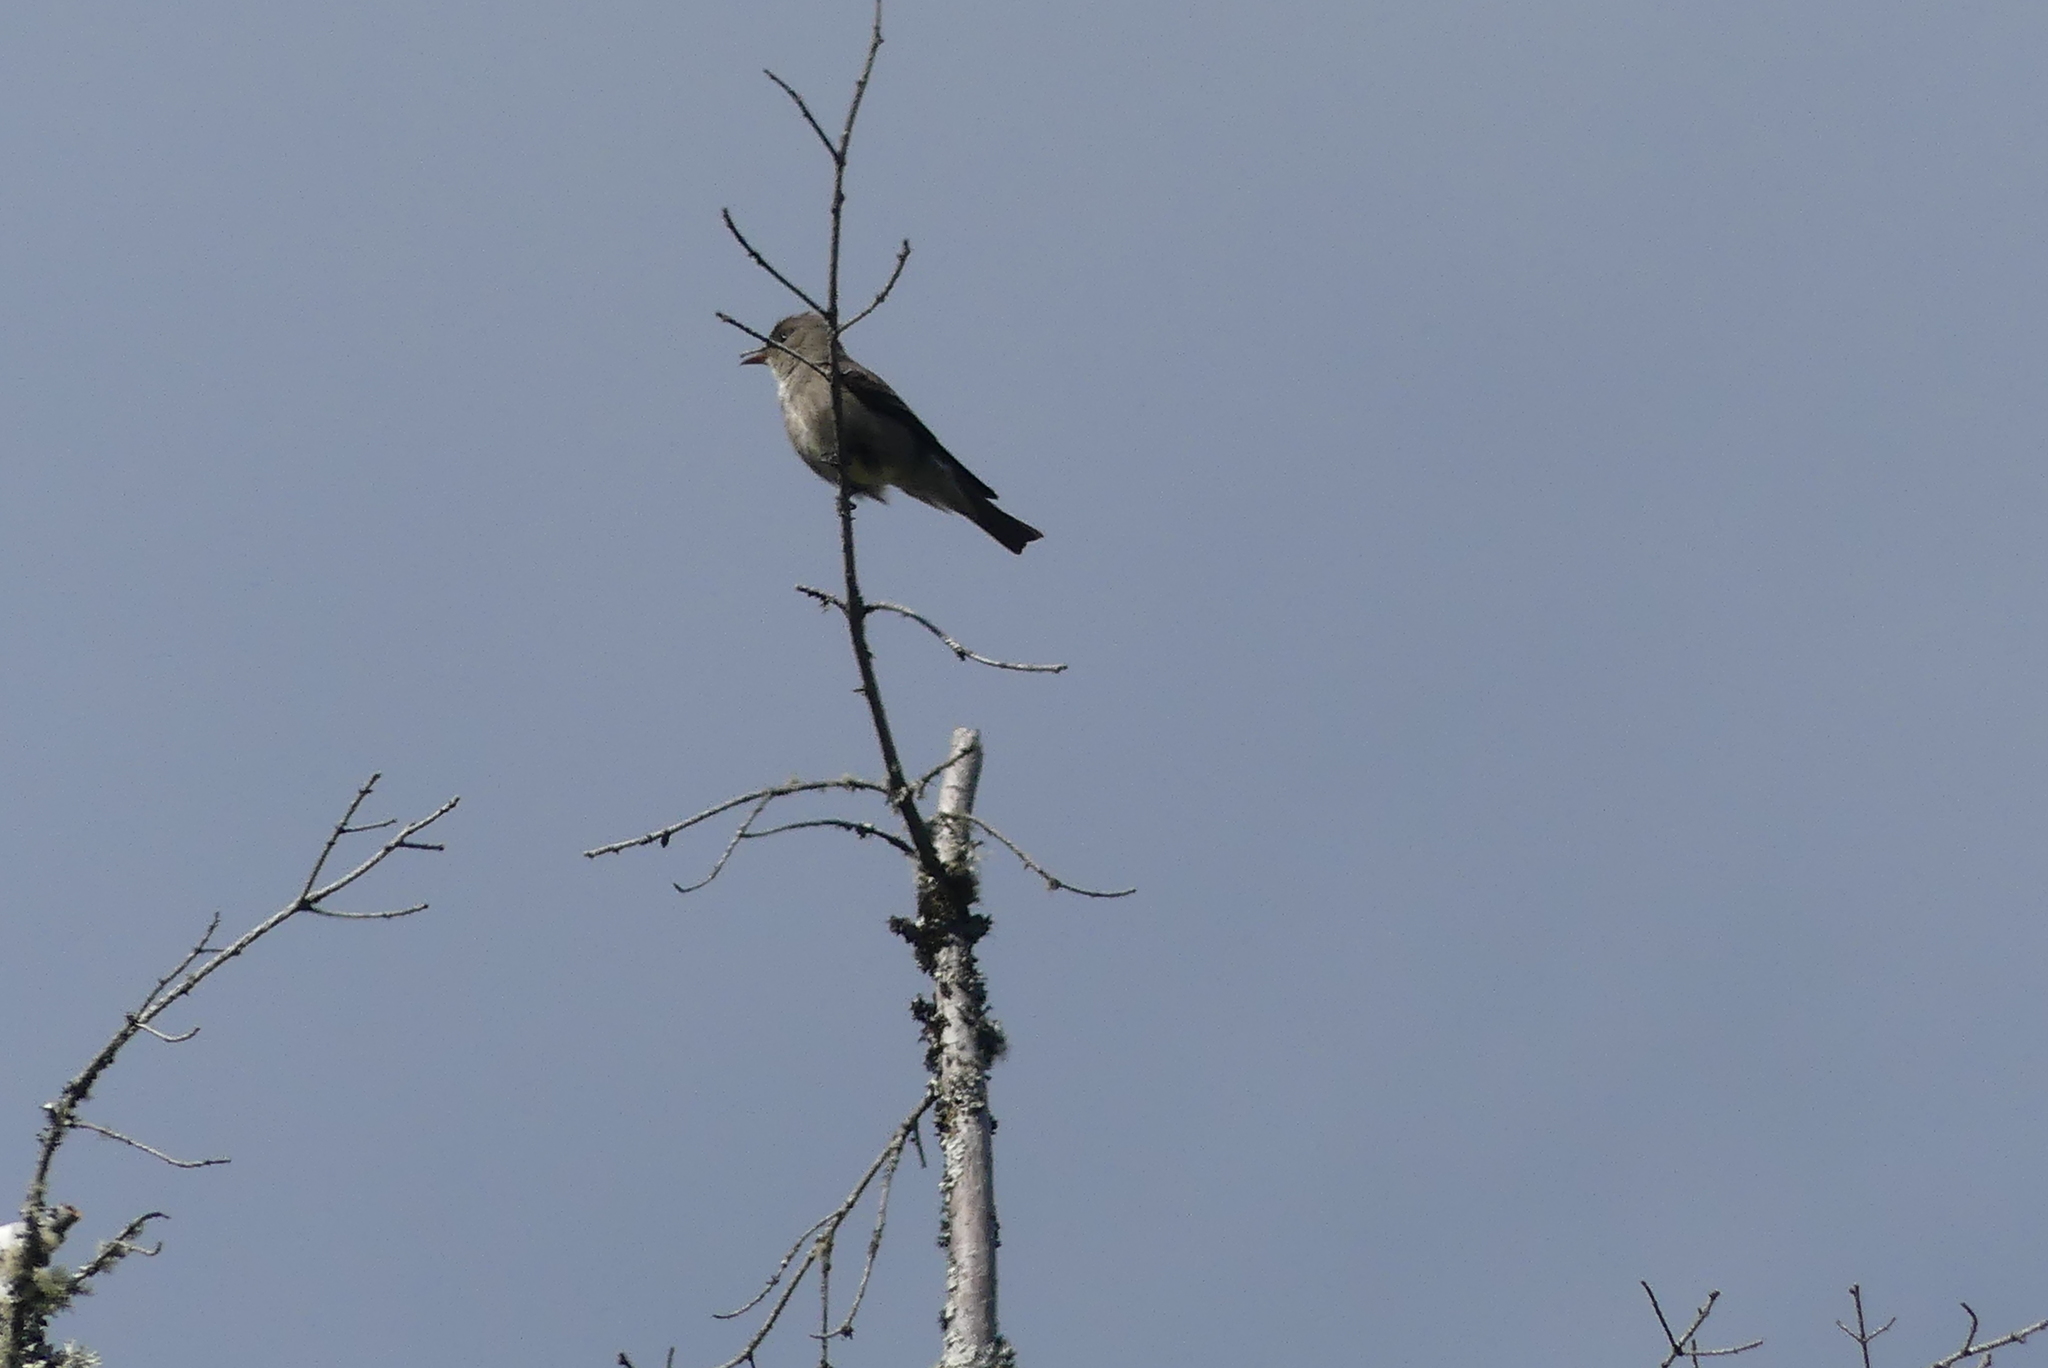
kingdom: Animalia
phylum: Chordata
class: Aves
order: Passeriformes
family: Tyrannidae
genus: Contopus
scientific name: Contopus cooperi
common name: Olive-sided flycatcher
